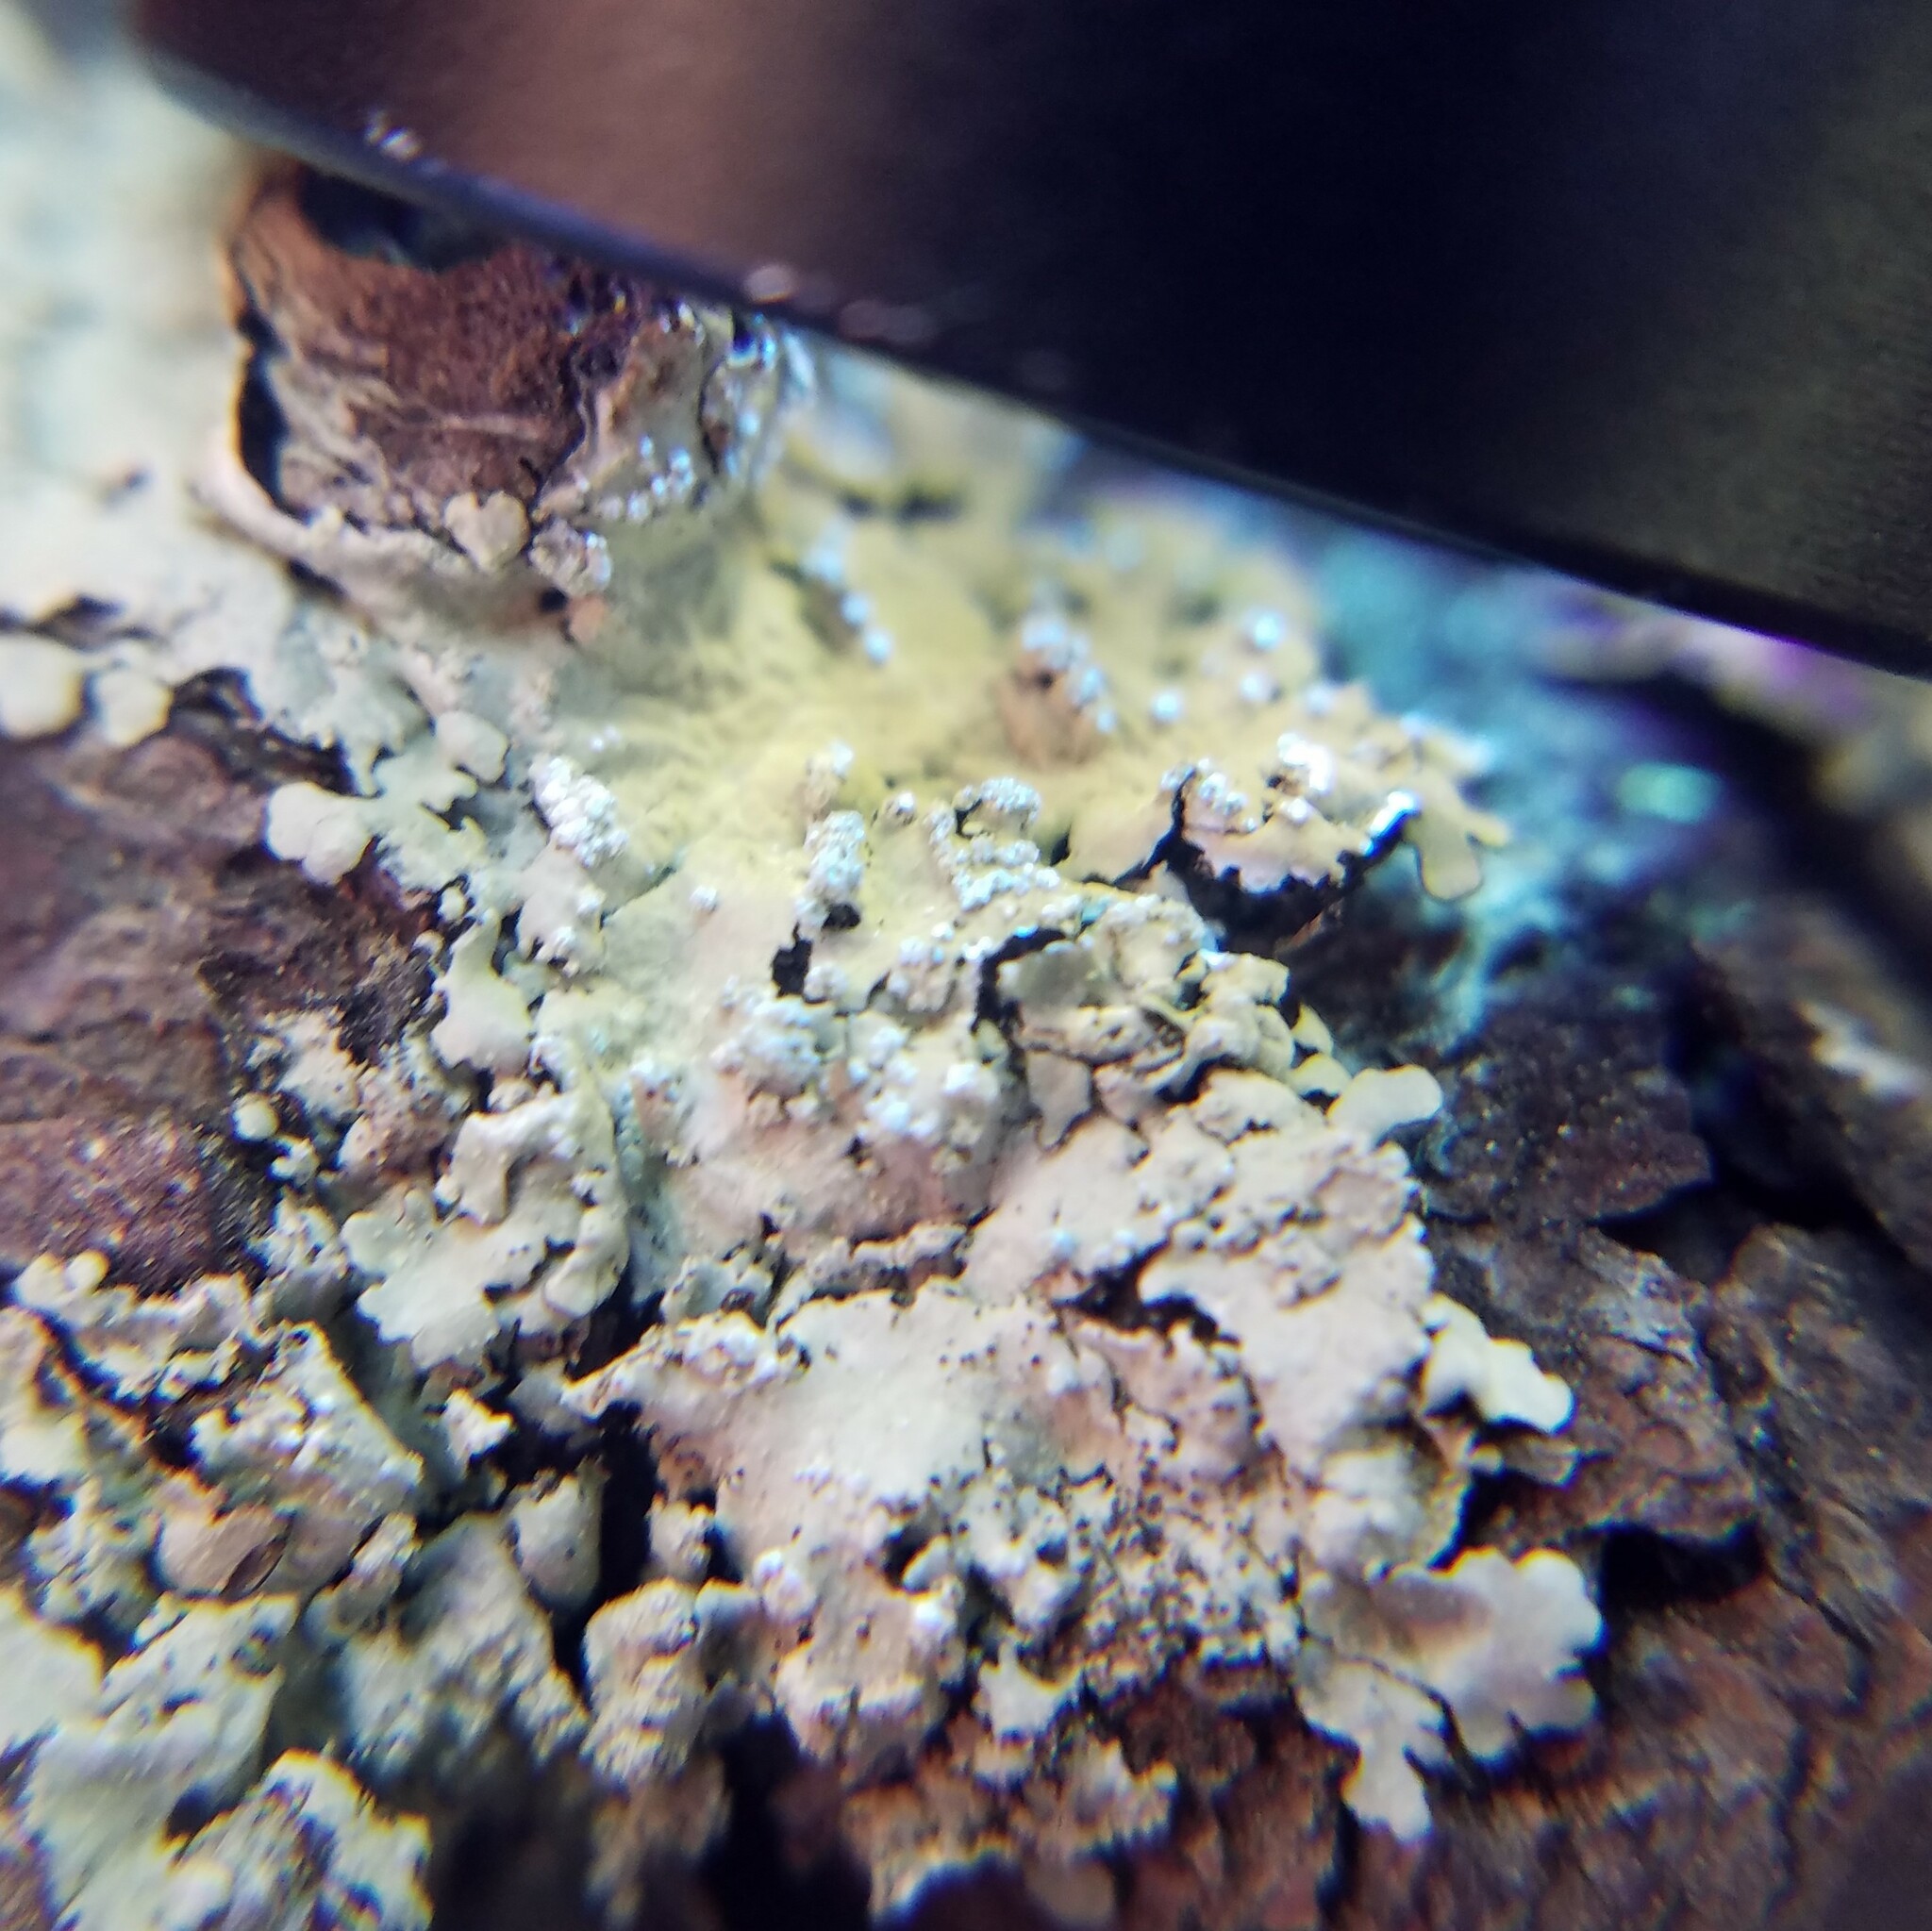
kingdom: Fungi
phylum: Ascomycota
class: Lecanoromycetes
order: Lecanorales
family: Parmeliaceae
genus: Canoparmelia
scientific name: Canoparmelia texana
